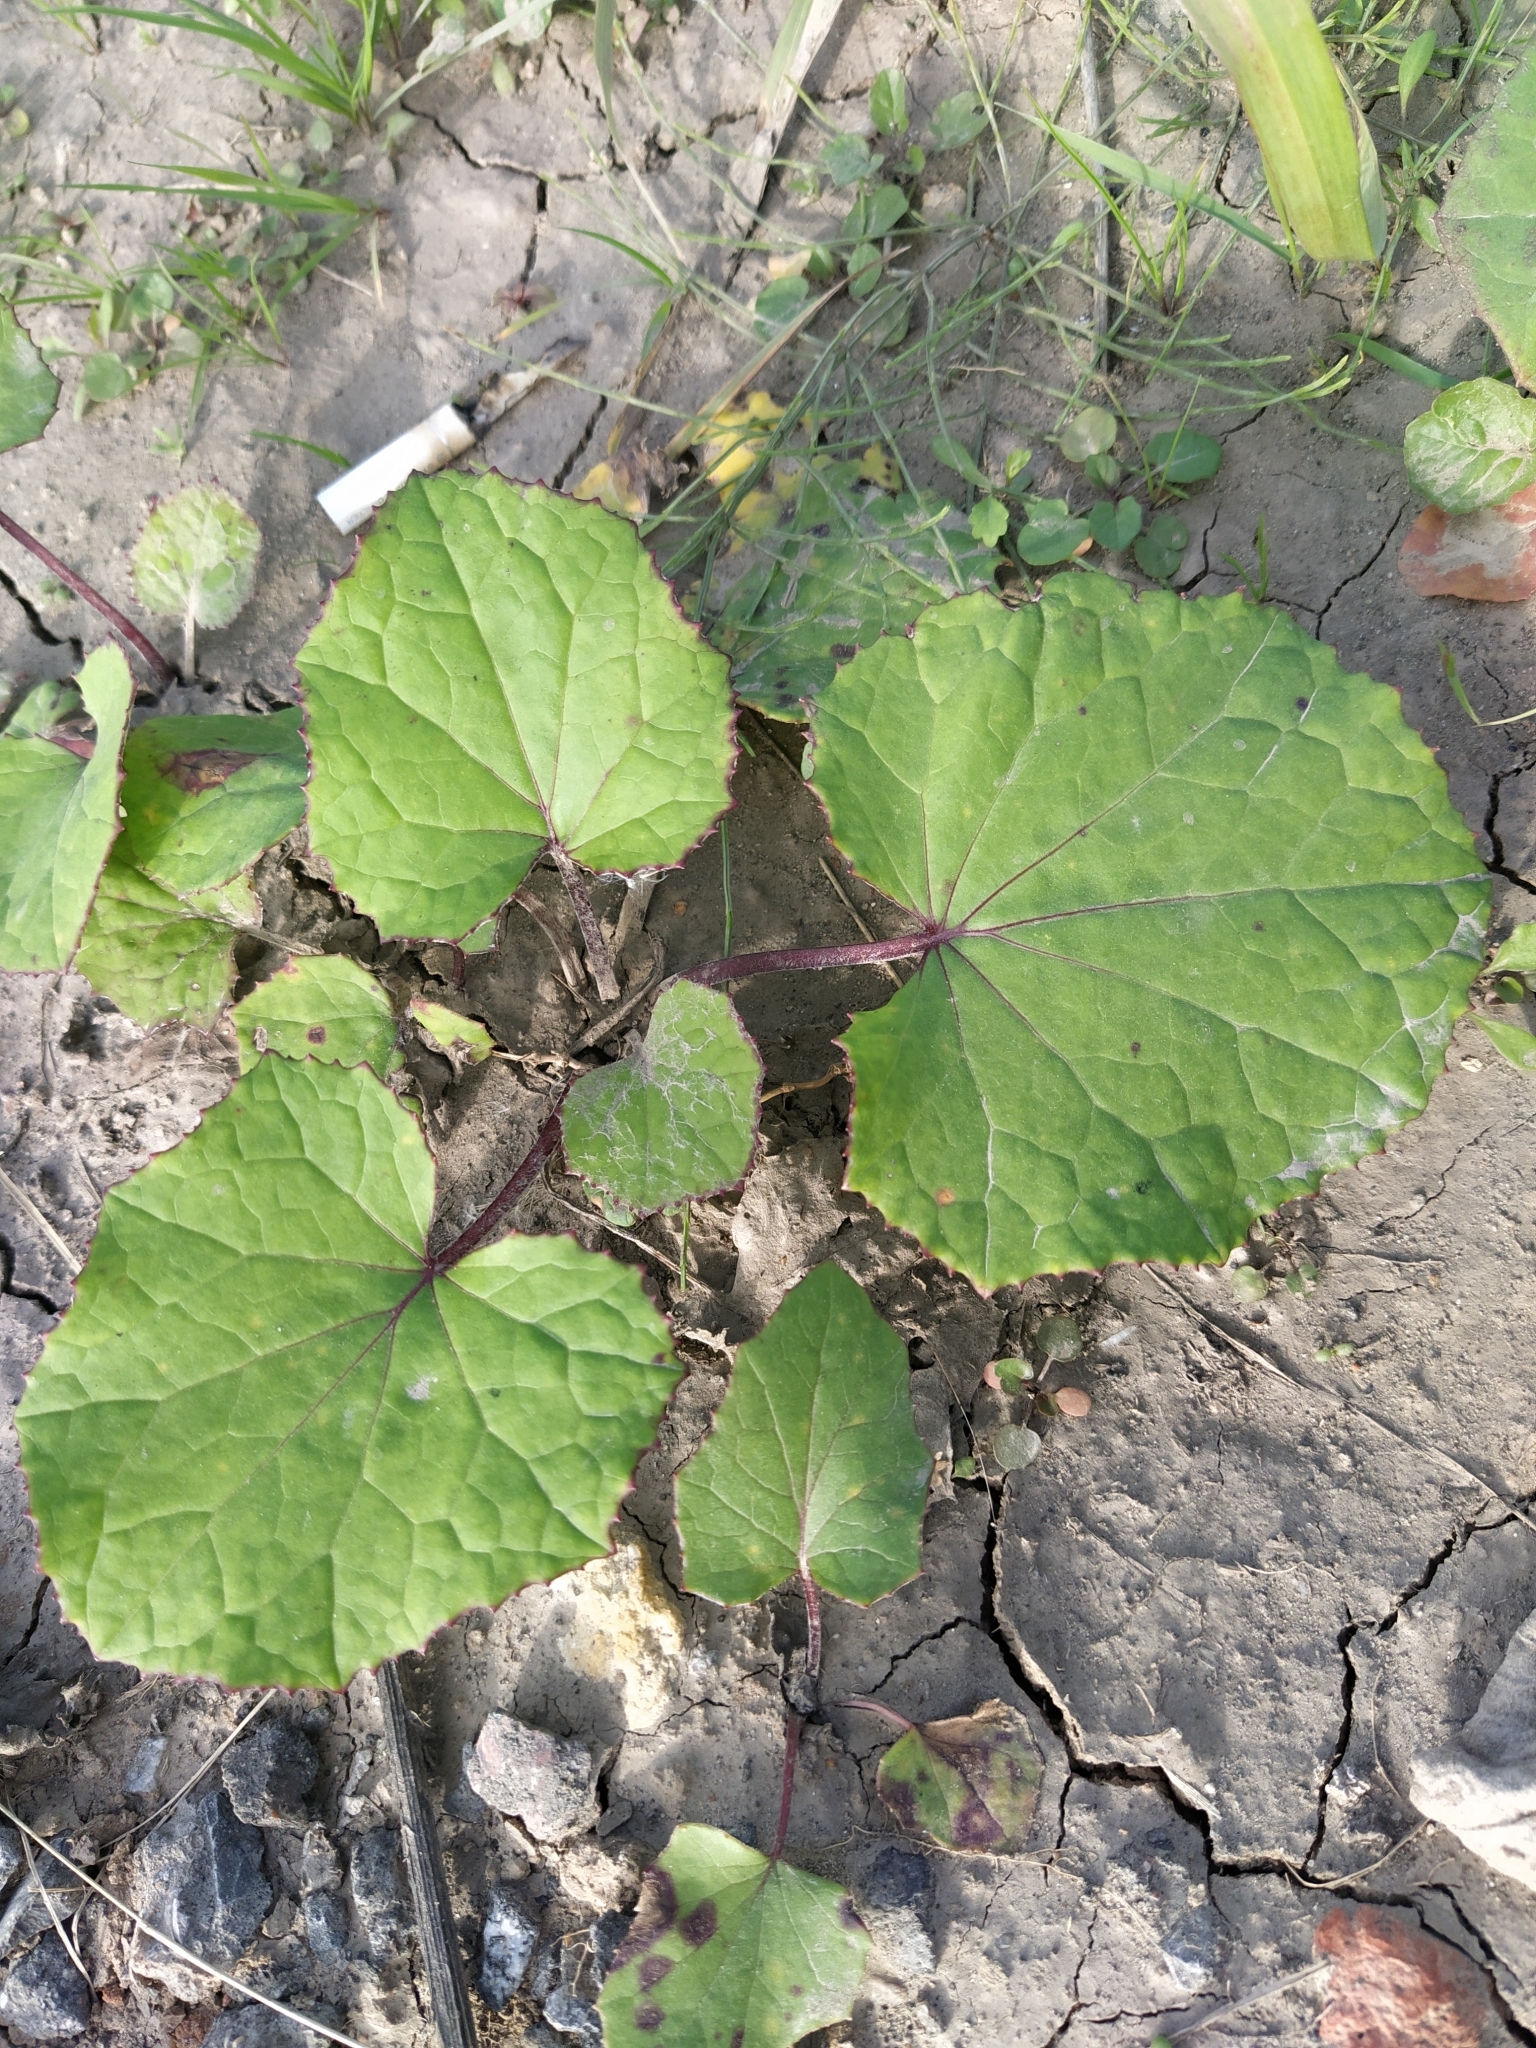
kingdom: Plantae
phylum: Tracheophyta
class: Magnoliopsida
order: Asterales
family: Asteraceae
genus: Tussilago
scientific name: Tussilago farfara
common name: Coltsfoot
